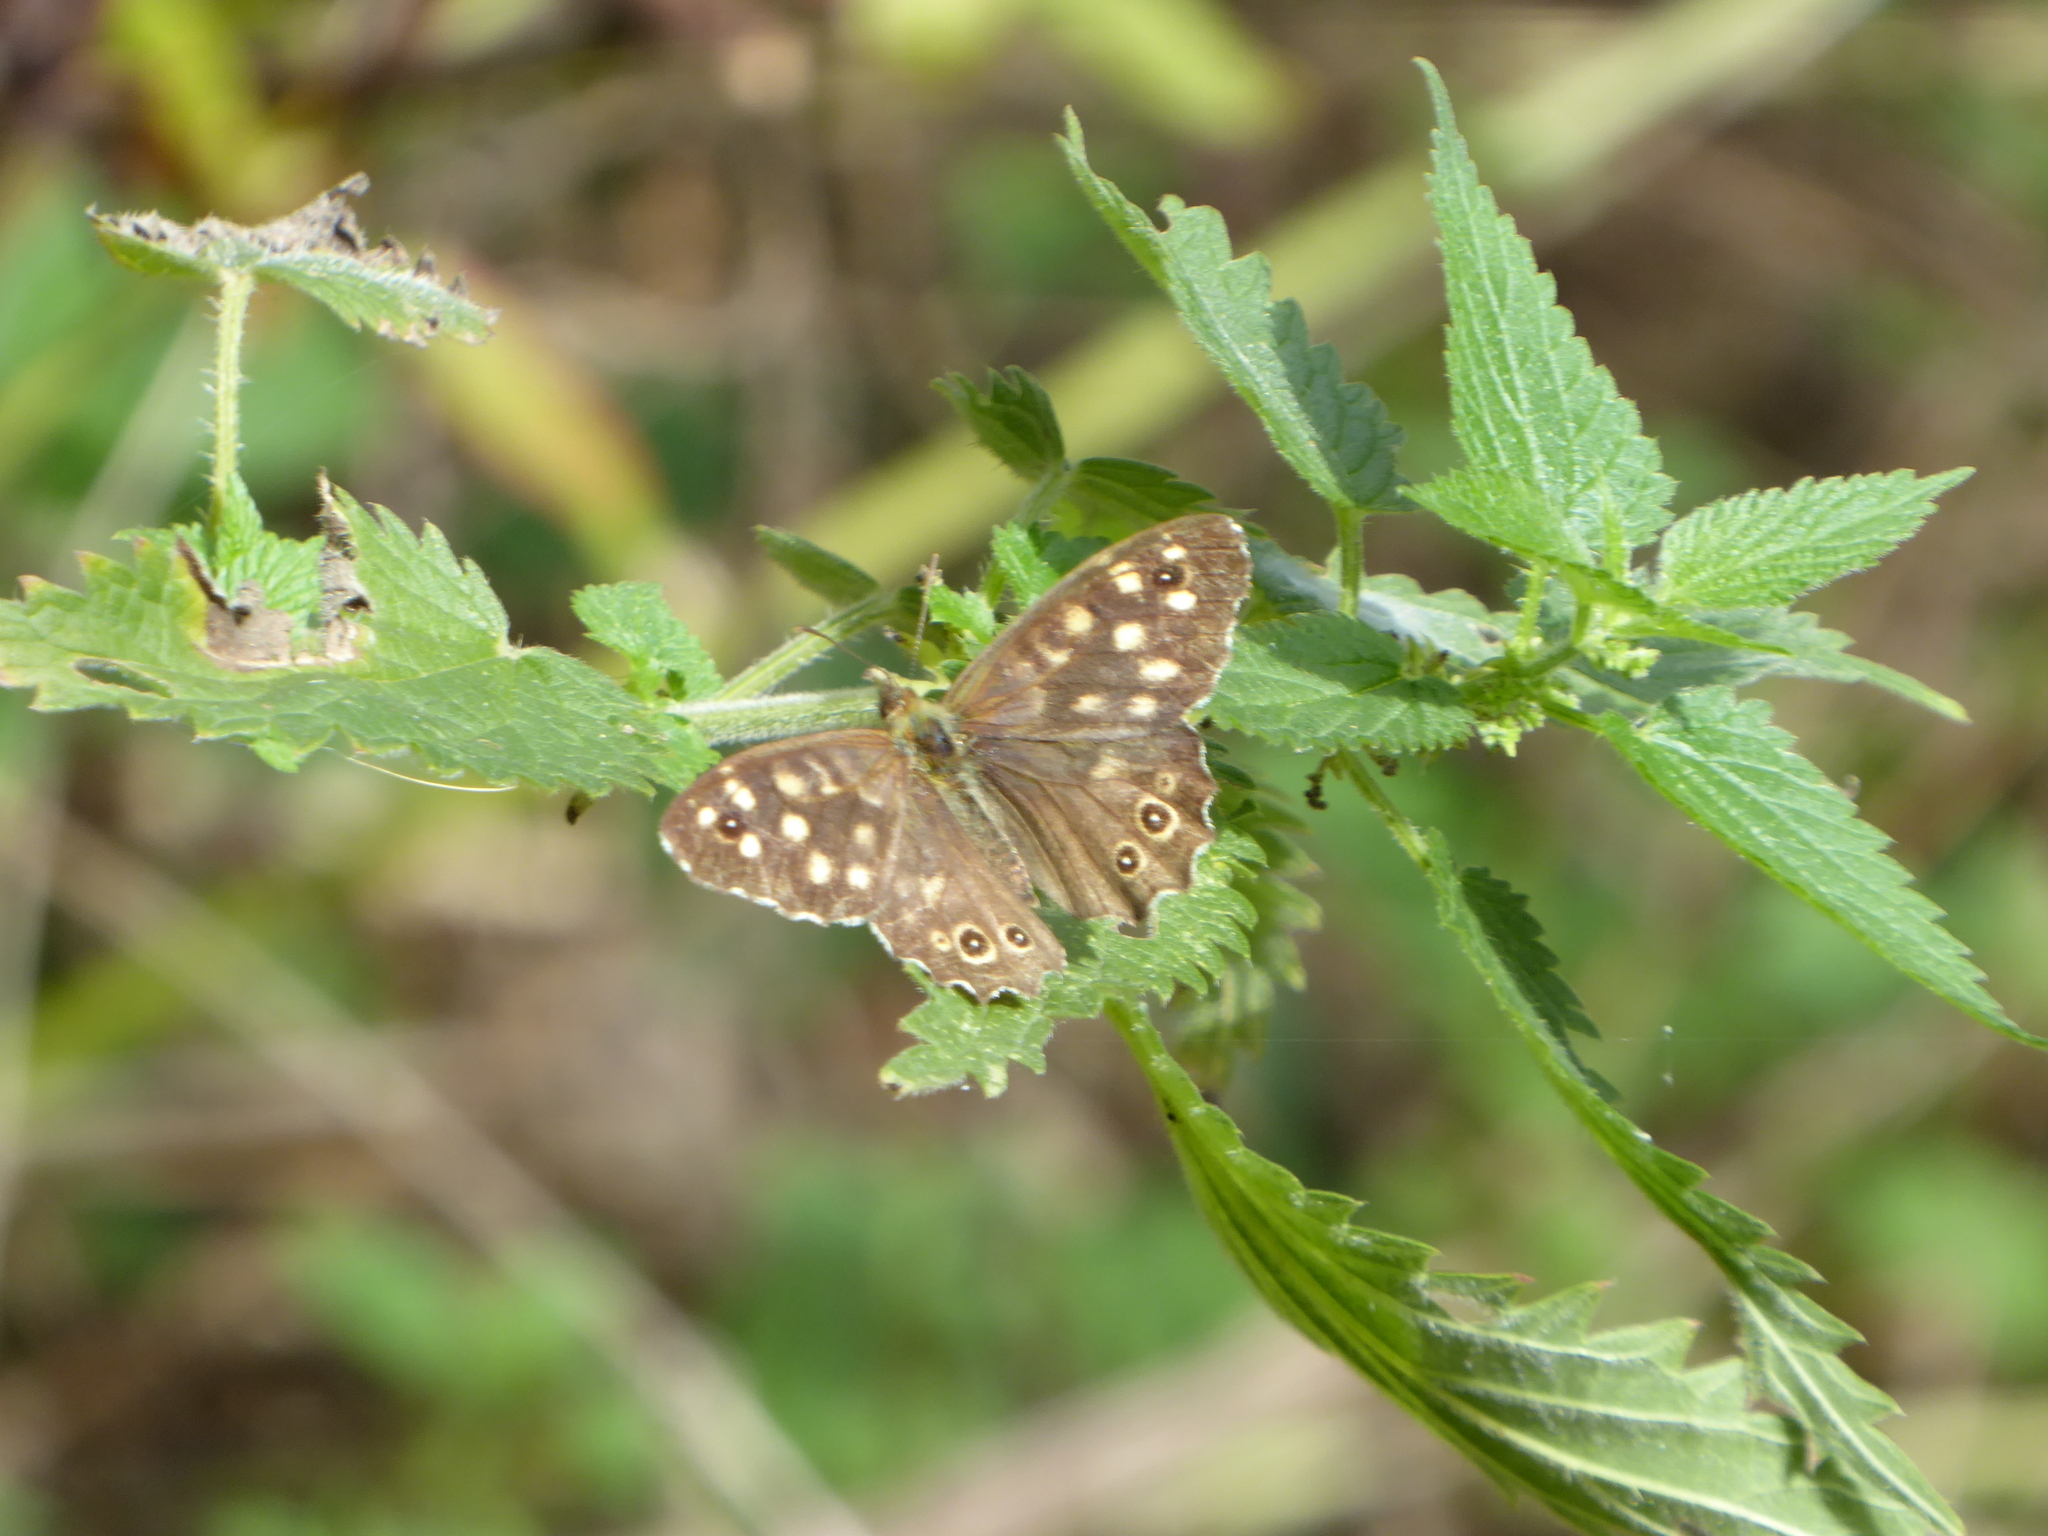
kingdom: Animalia
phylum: Arthropoda
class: Insecta
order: Lepidoptera
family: Nymphalidae
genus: Pararge
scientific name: Pararge aegeria
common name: Speckled wood
